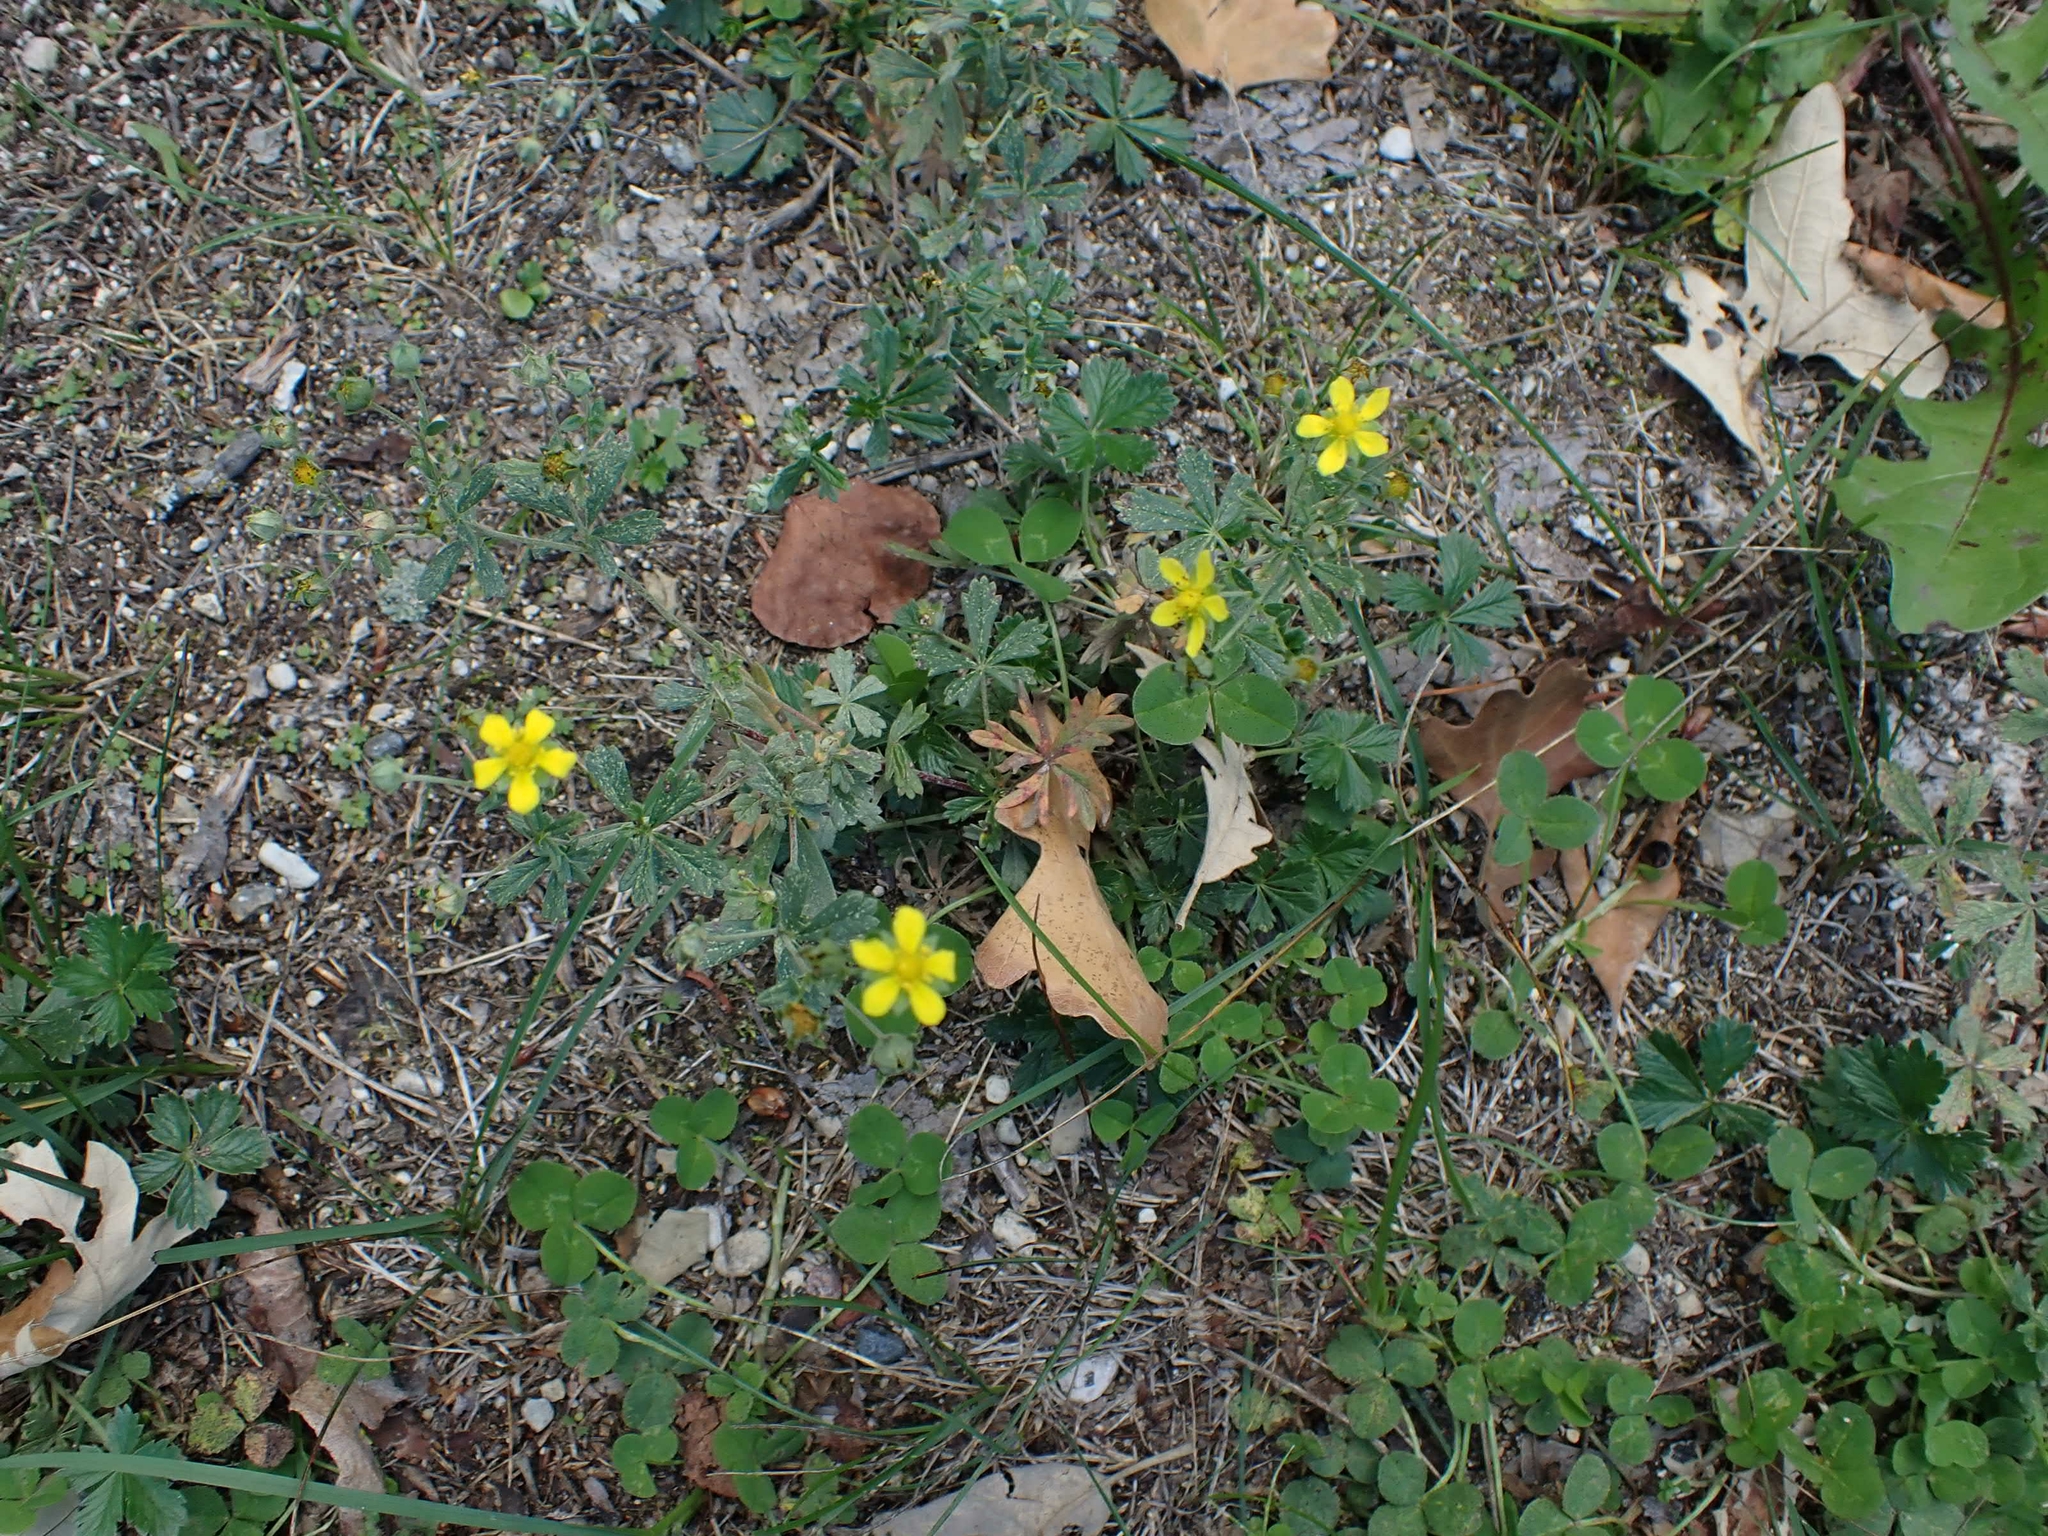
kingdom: Plantae
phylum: Tracheophyta
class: Magnoliopsida
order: Rosales
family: Rosaceae
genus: Potentilla
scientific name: Potentilla argentea
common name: Hoary cinquefoil
